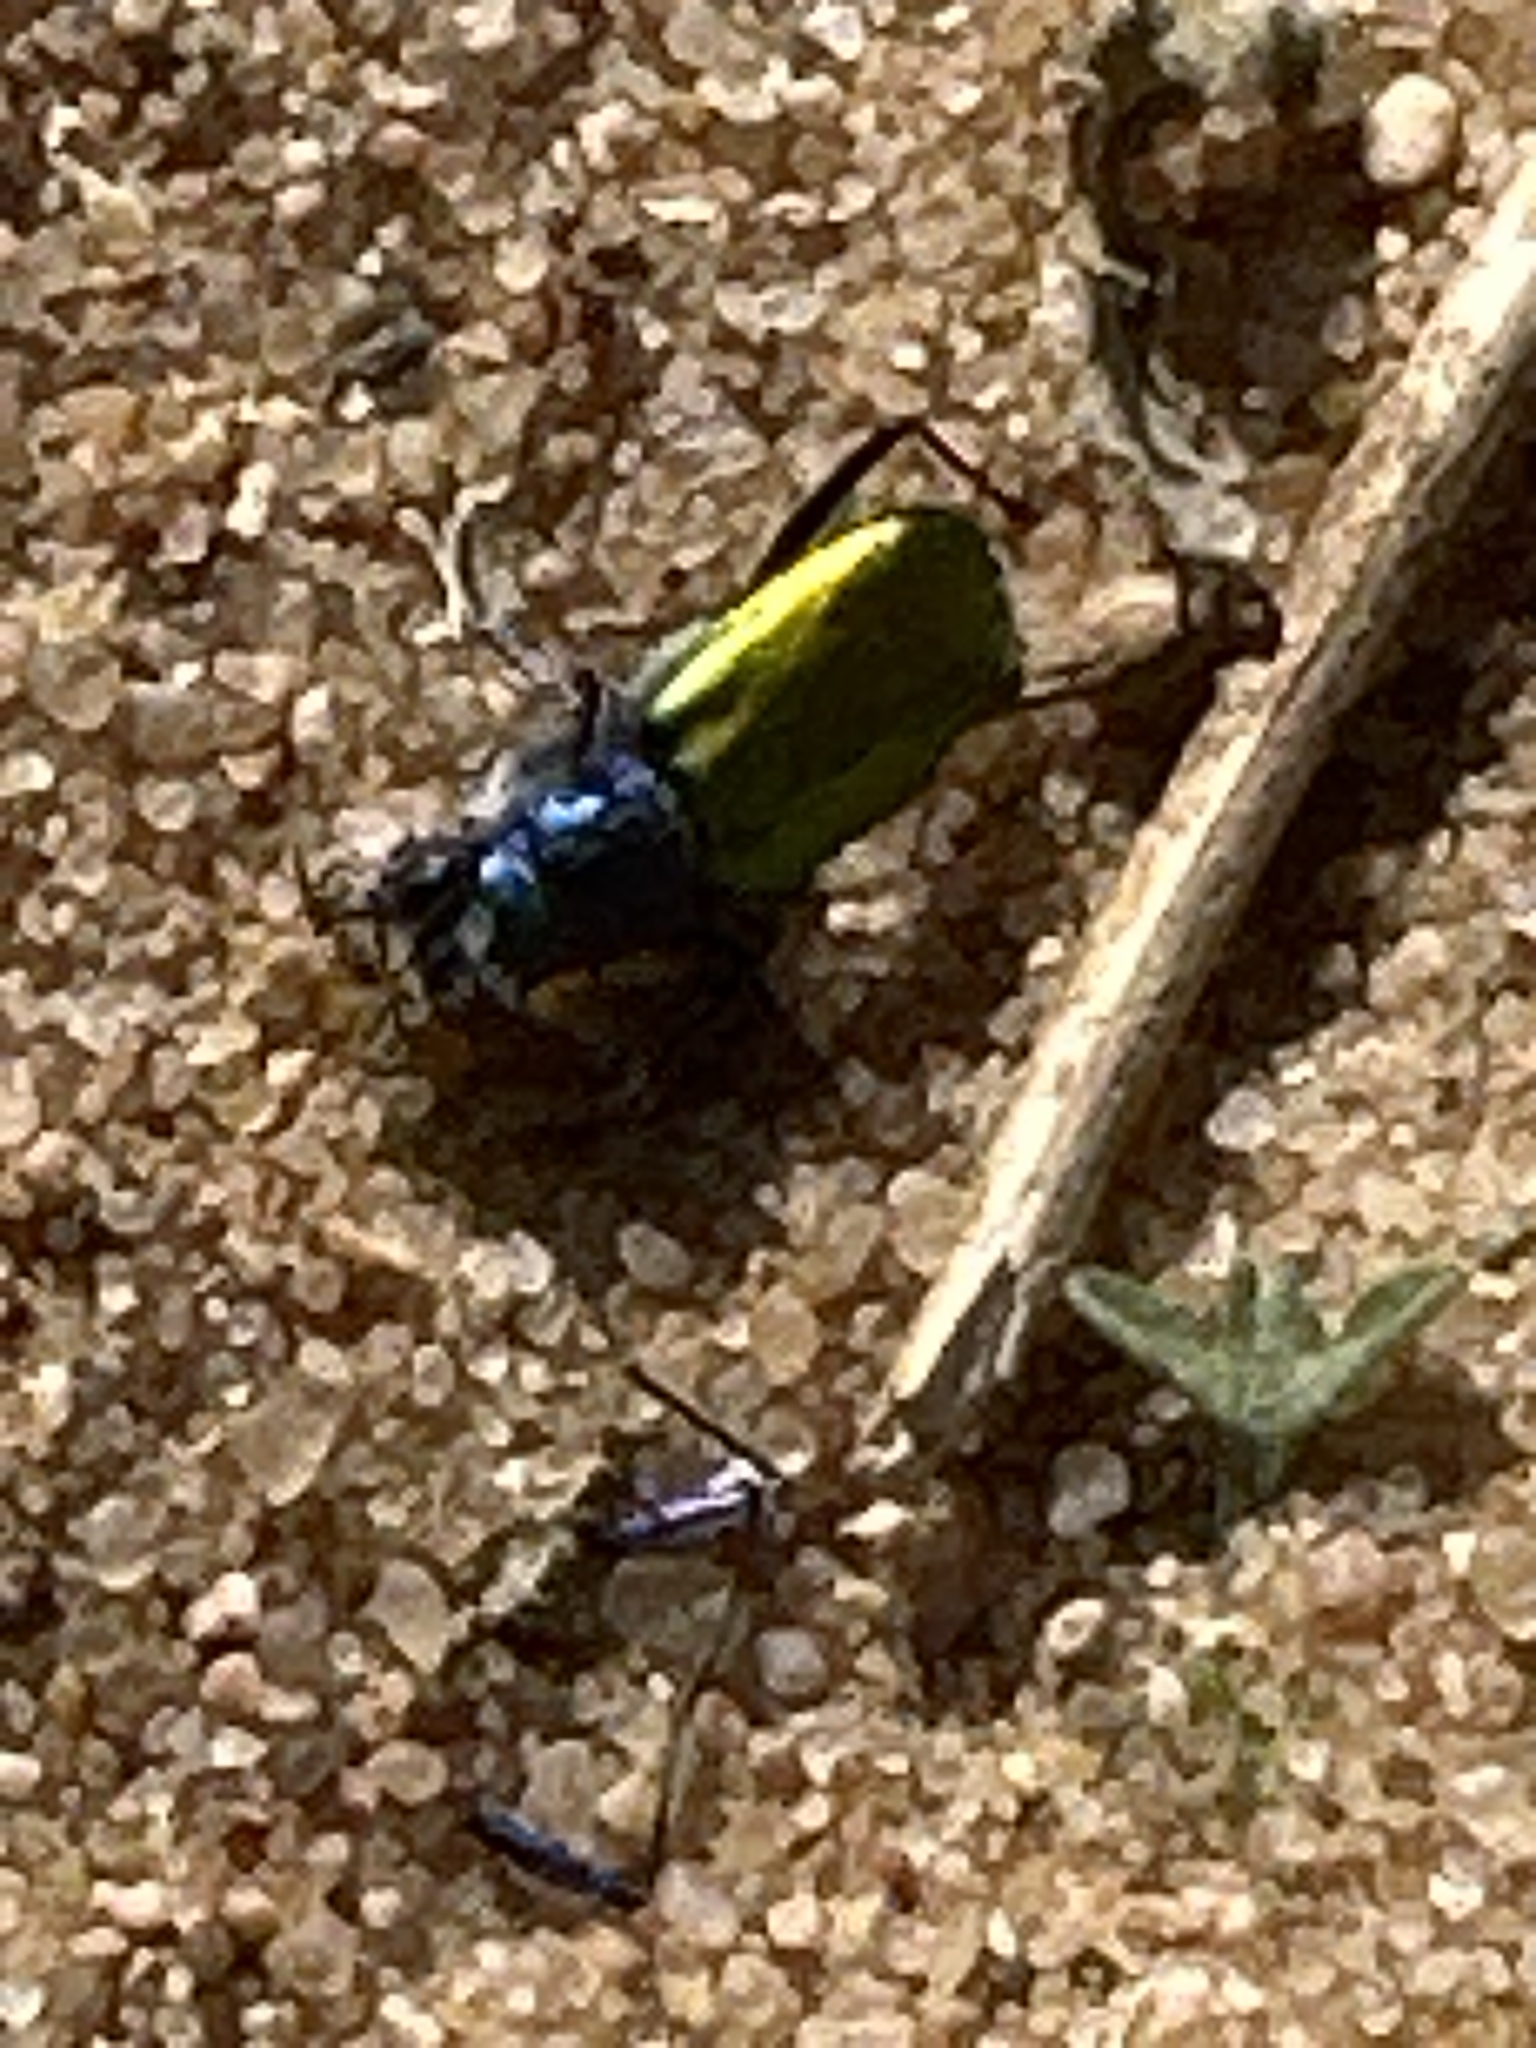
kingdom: Animalia
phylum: Arthropoda
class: Insecta
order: Coleoptera
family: Carabidae
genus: Cicindela
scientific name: Cicindela scutellaris
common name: Festive tiger beetle
